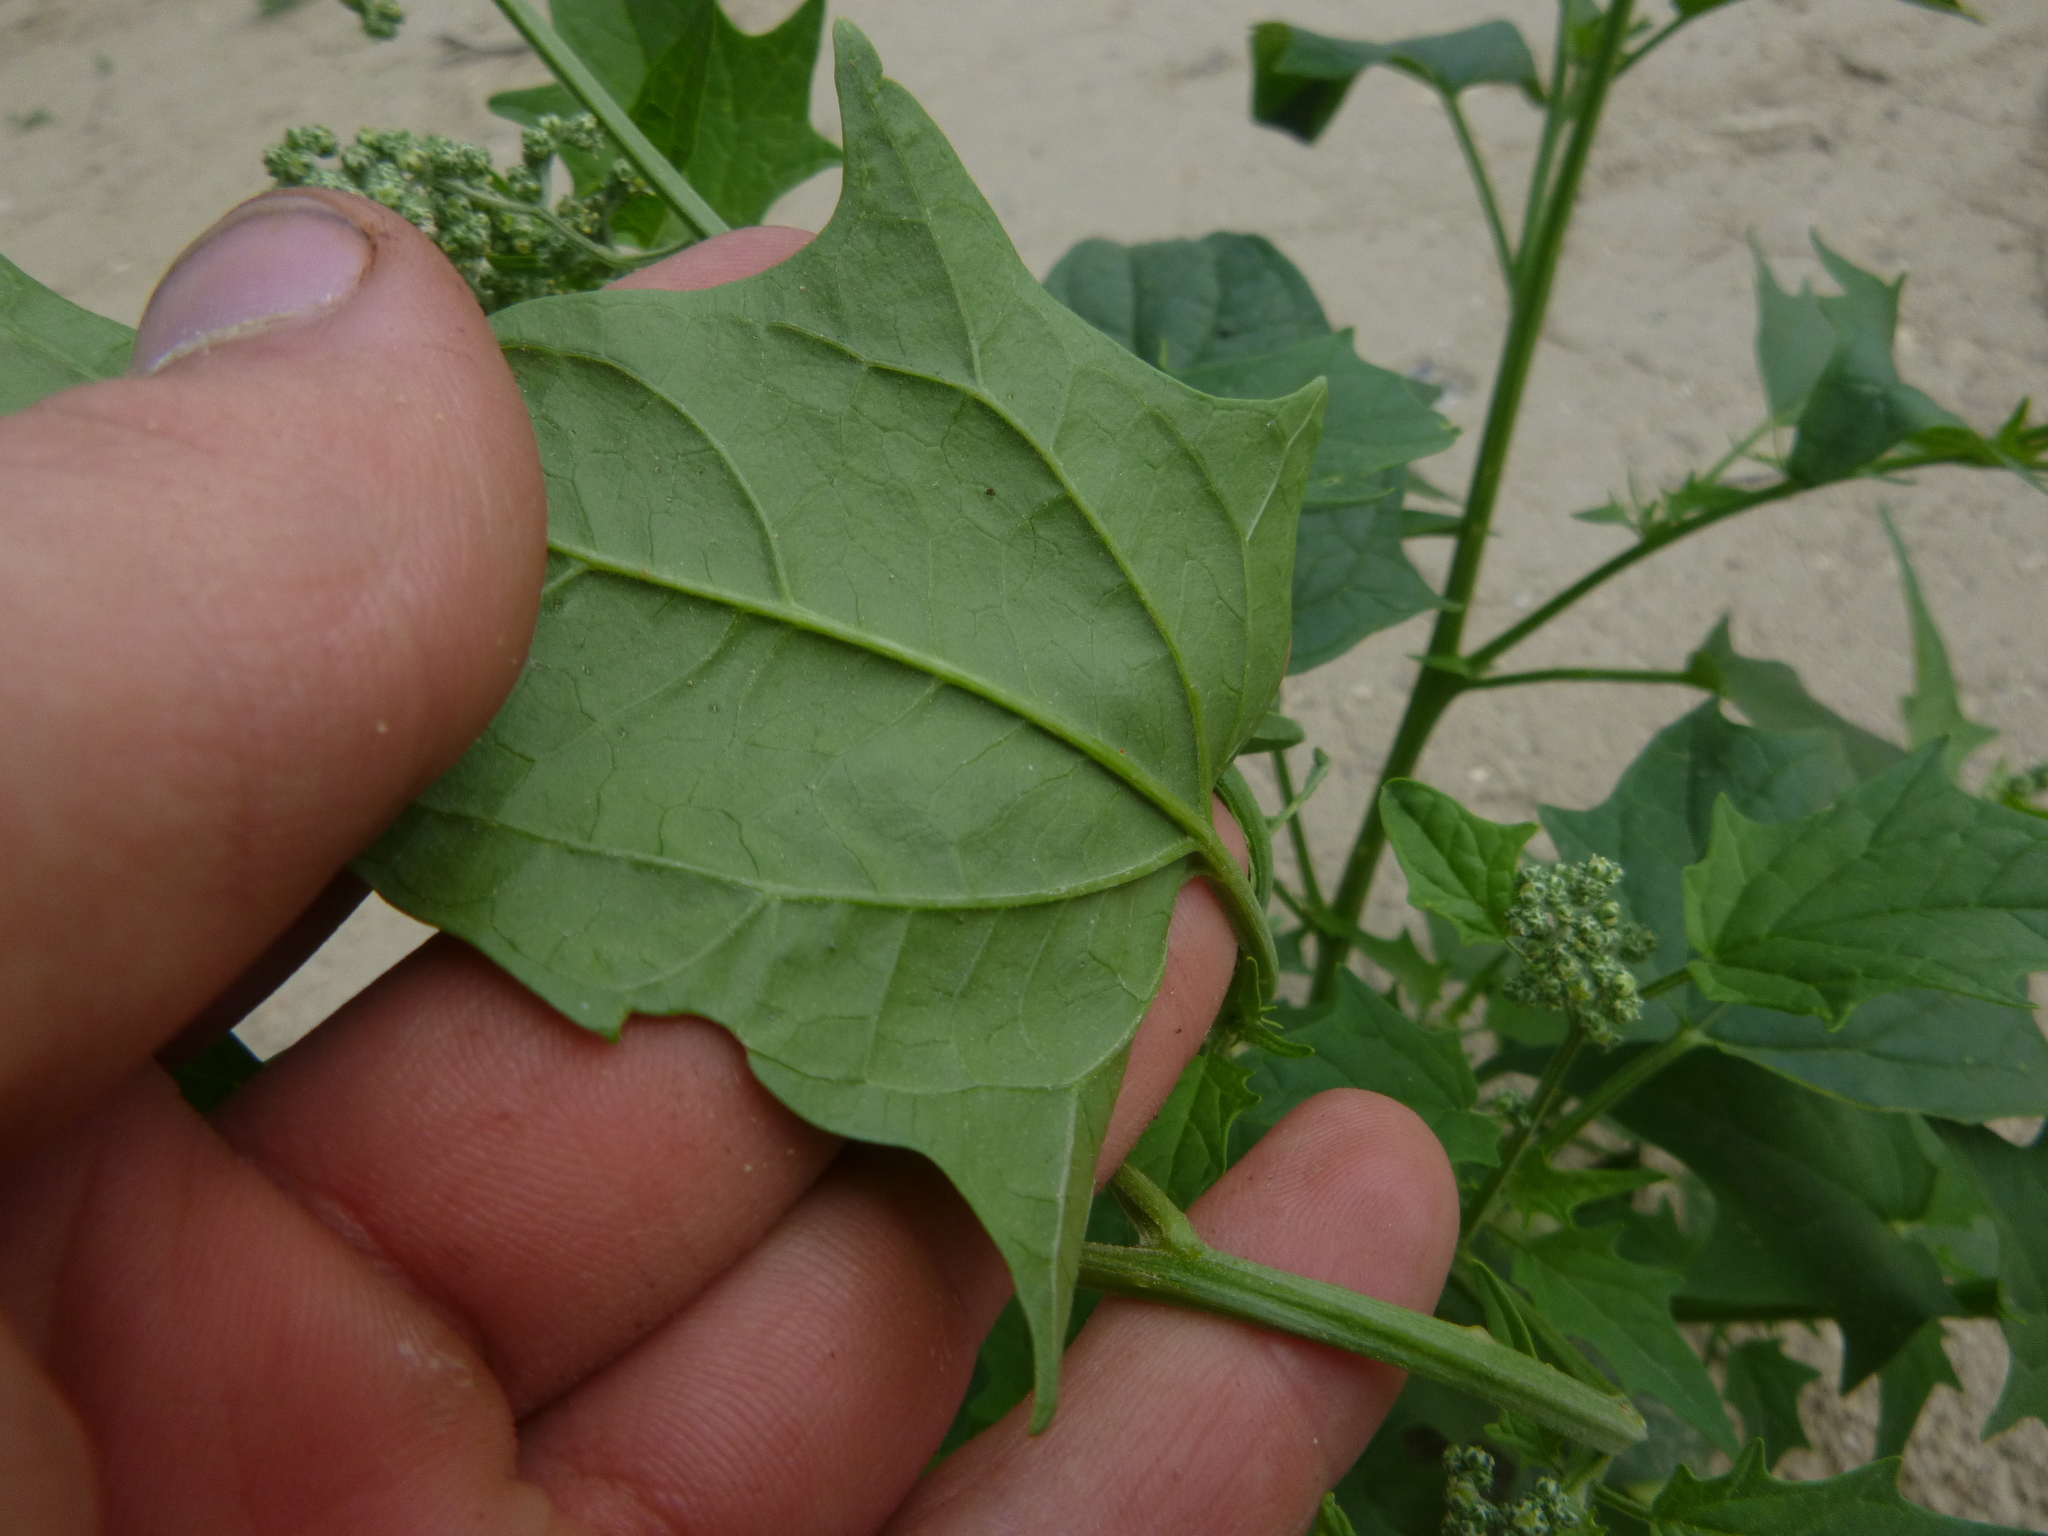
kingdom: Plantae
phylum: Tracheophyta
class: Magnoliopsida
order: Caryophyllales
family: Amaranthaceae
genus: Chenopodiastrum
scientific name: Chenopodiastrum hybridum
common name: Mapleleaf goosefoot
